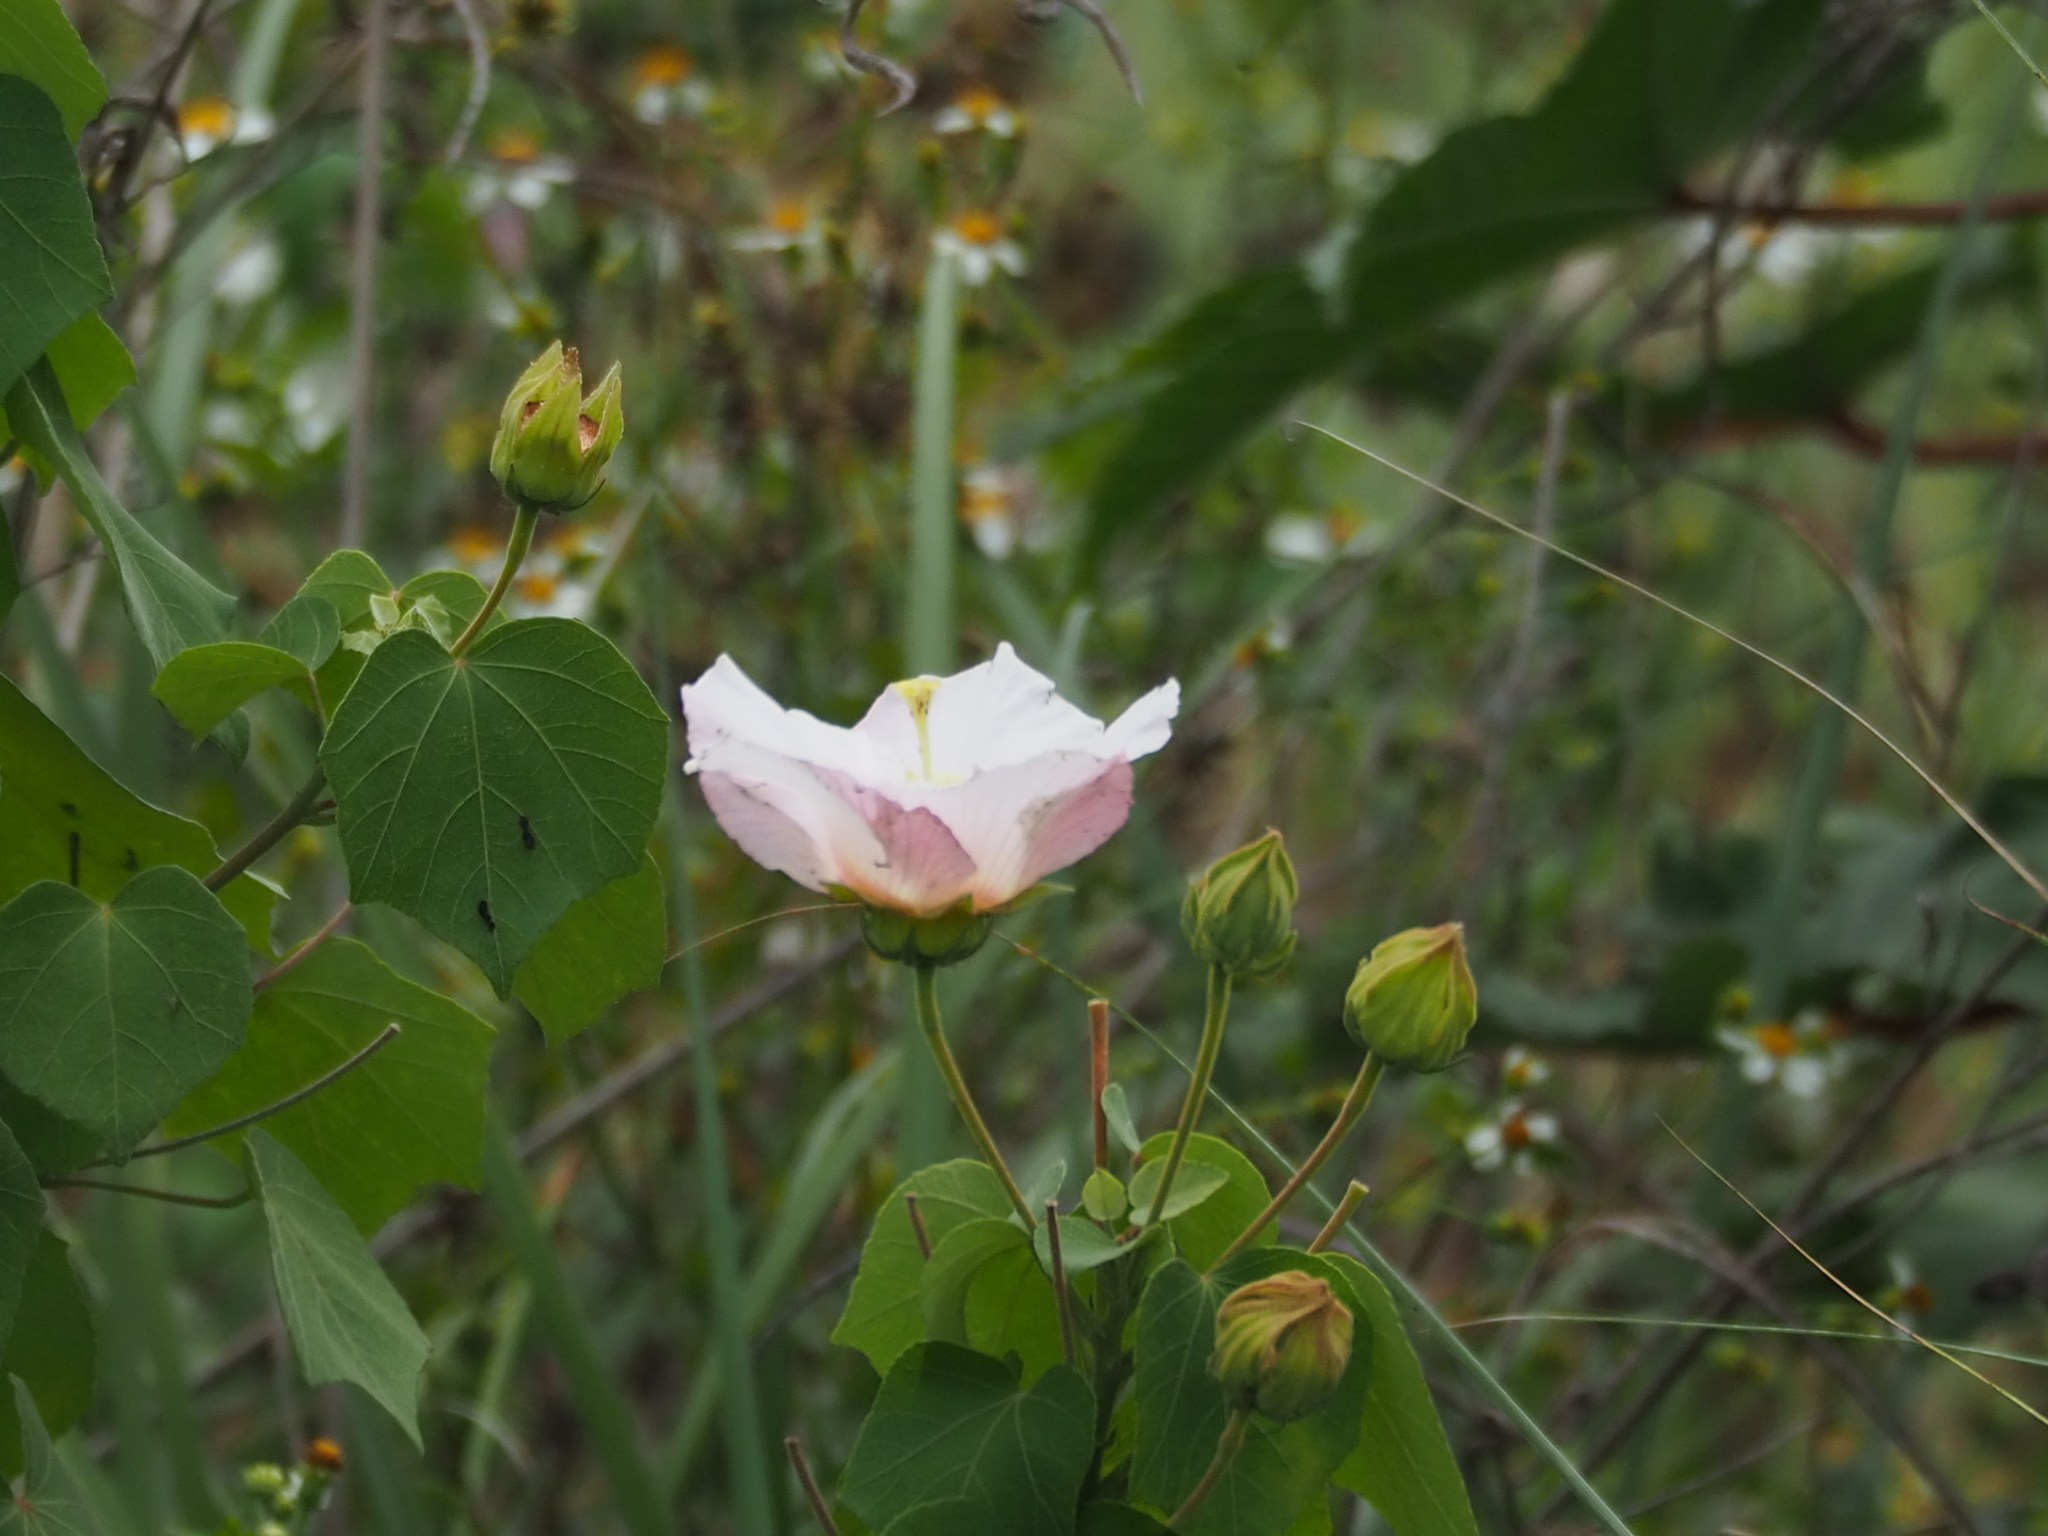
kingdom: Plantae
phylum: Tracheophyta
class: Magnoliopsida
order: Malvales
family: Malvaceae
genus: Hibiscus
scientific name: Hibiscus taiwanensis
